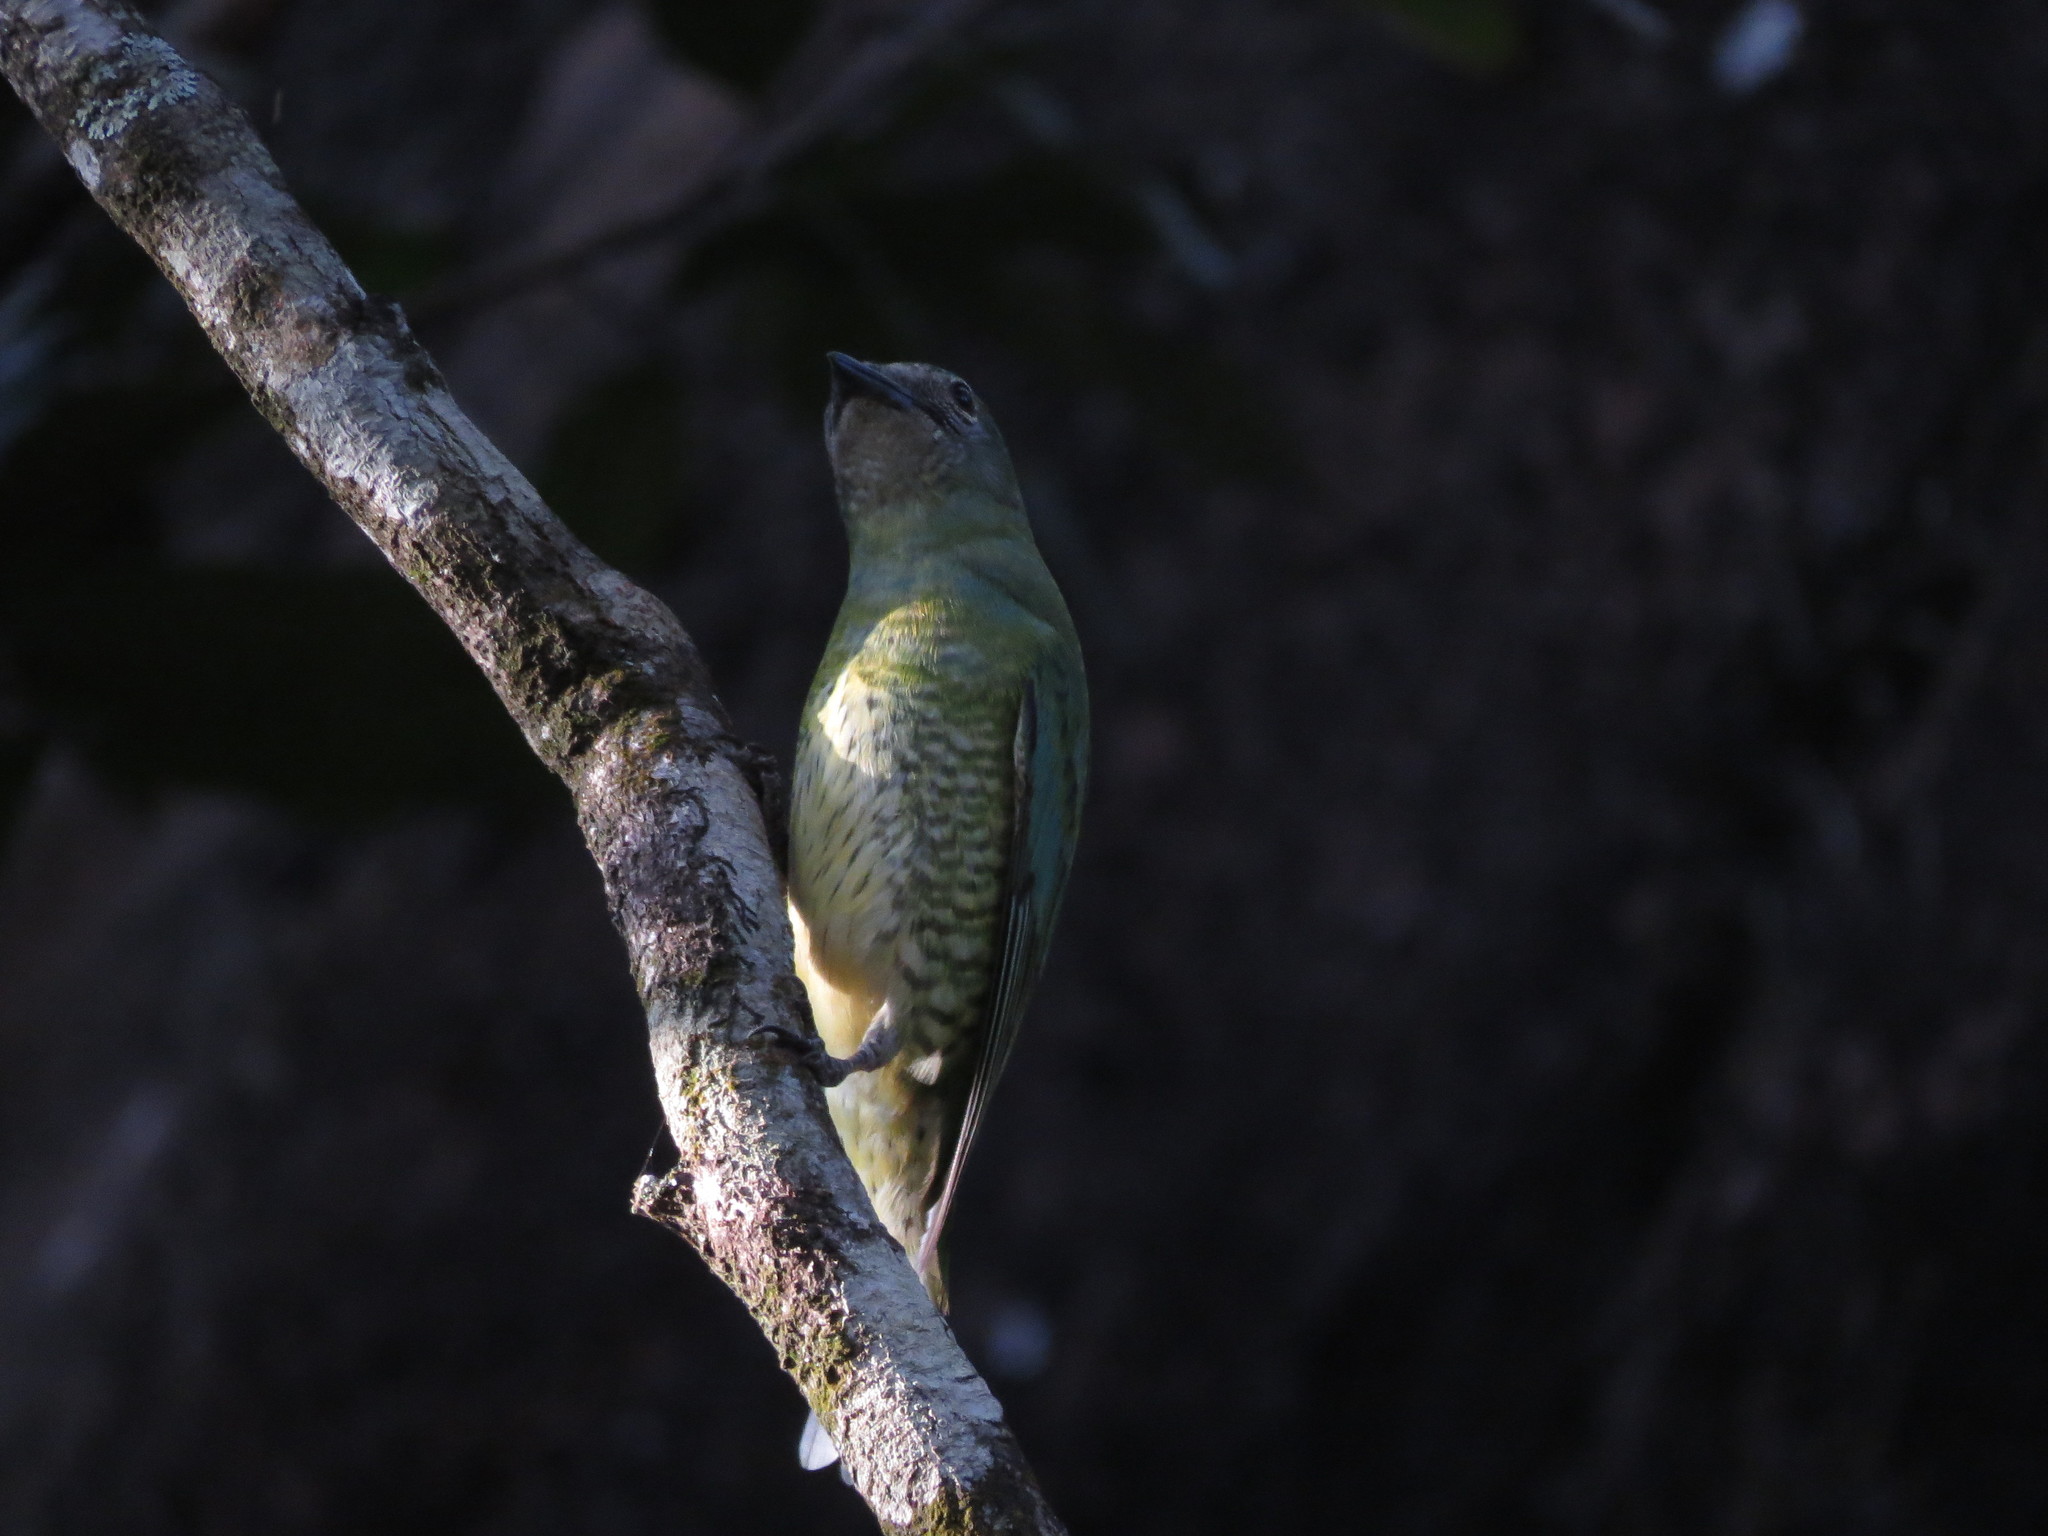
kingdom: Animalia
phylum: Chordata
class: Aves
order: Passeriformes
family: Thraupidae
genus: Tersina
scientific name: Tersina viridis
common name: Swallow tanager
